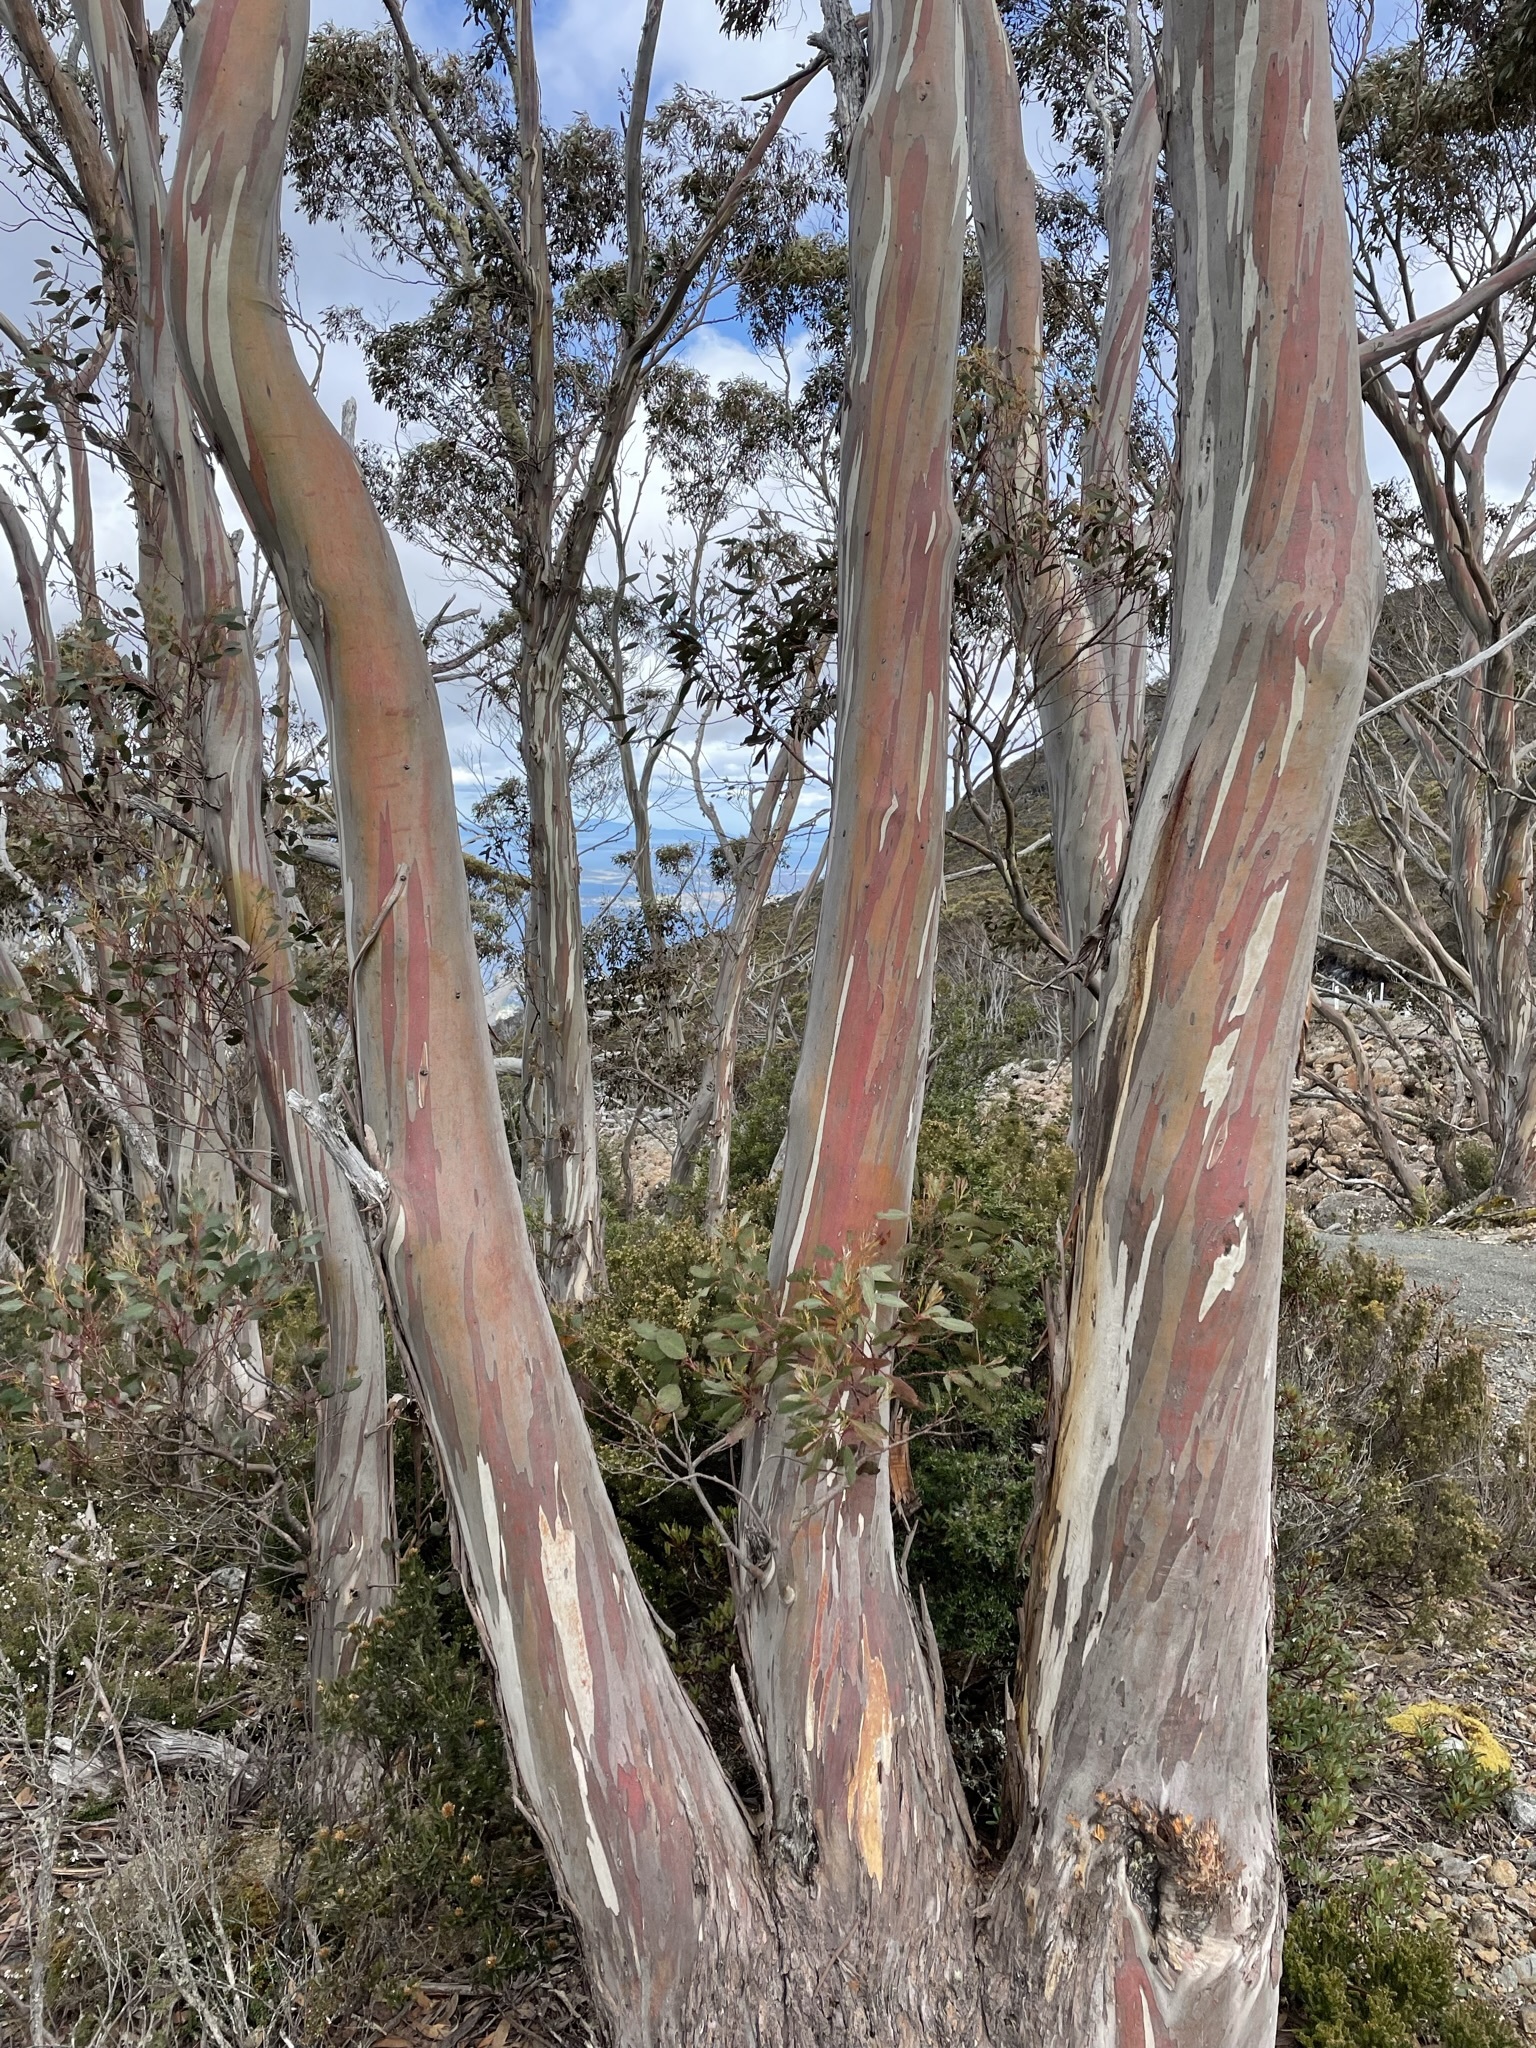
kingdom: Plantae
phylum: Tracheophyta
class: Magnoliopsida
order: Myrtales
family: Myrtaceae
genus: Eucalyptus
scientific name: Eucalyptus coccifera
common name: Tasmanian snow-gum
